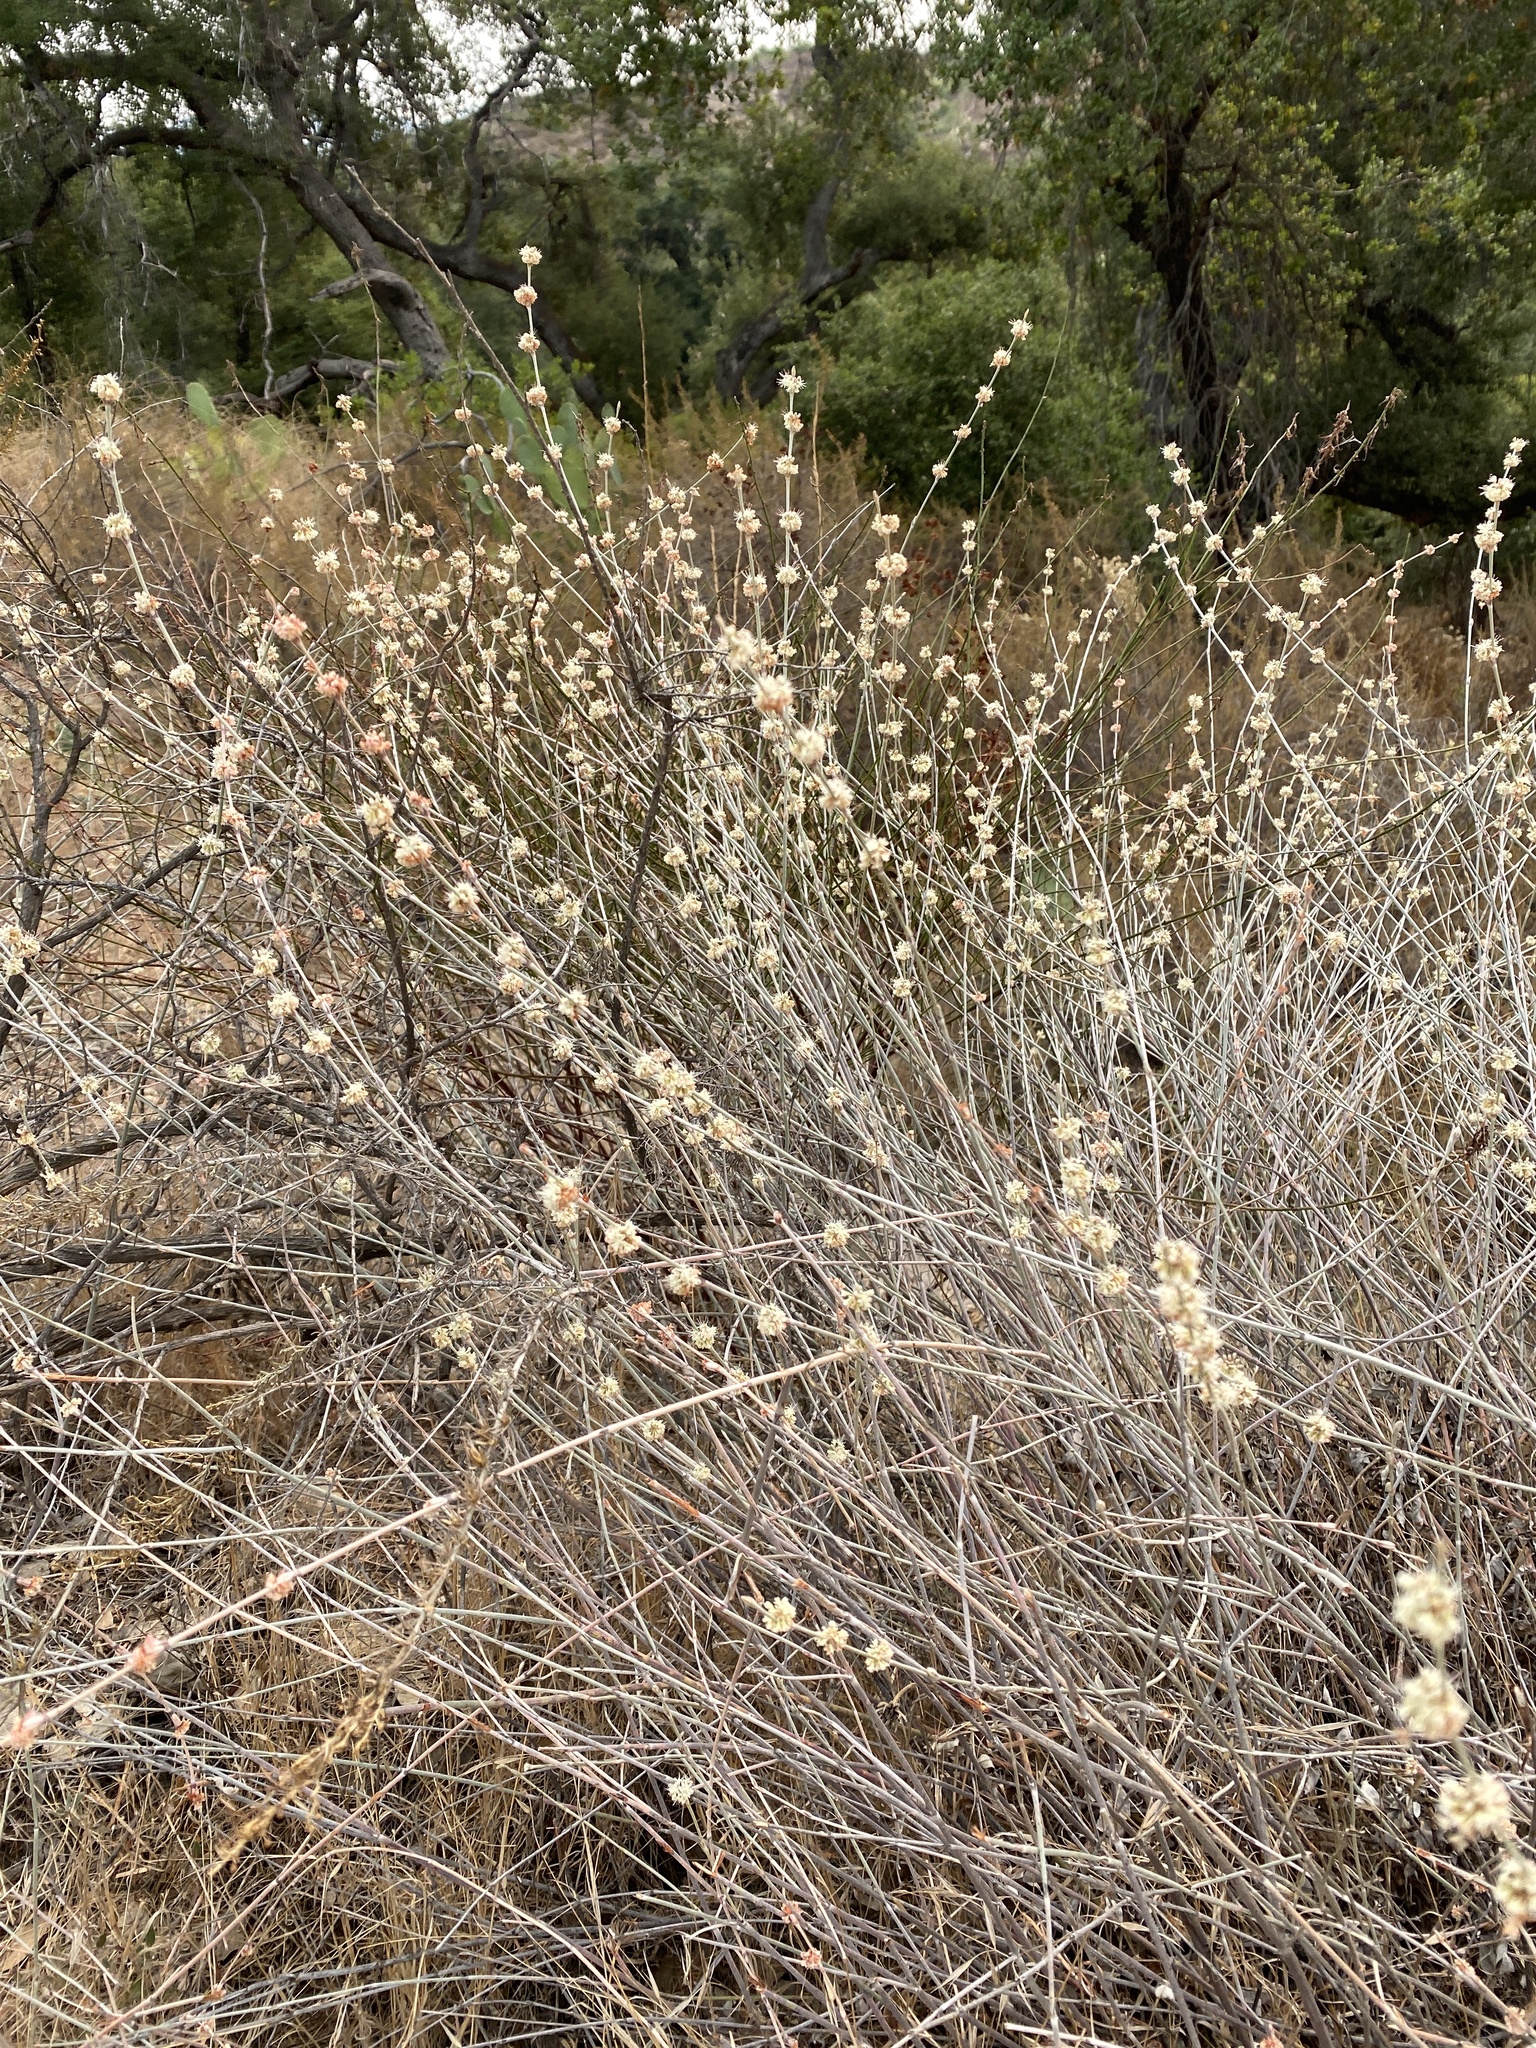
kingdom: Plantae
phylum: Tracheophyta
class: Magnoliopsida
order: Caryophyllales
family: Polygonaceae
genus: Eriogonum
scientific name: Eriogonum elongatum
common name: Long-stem wild buckwheat
